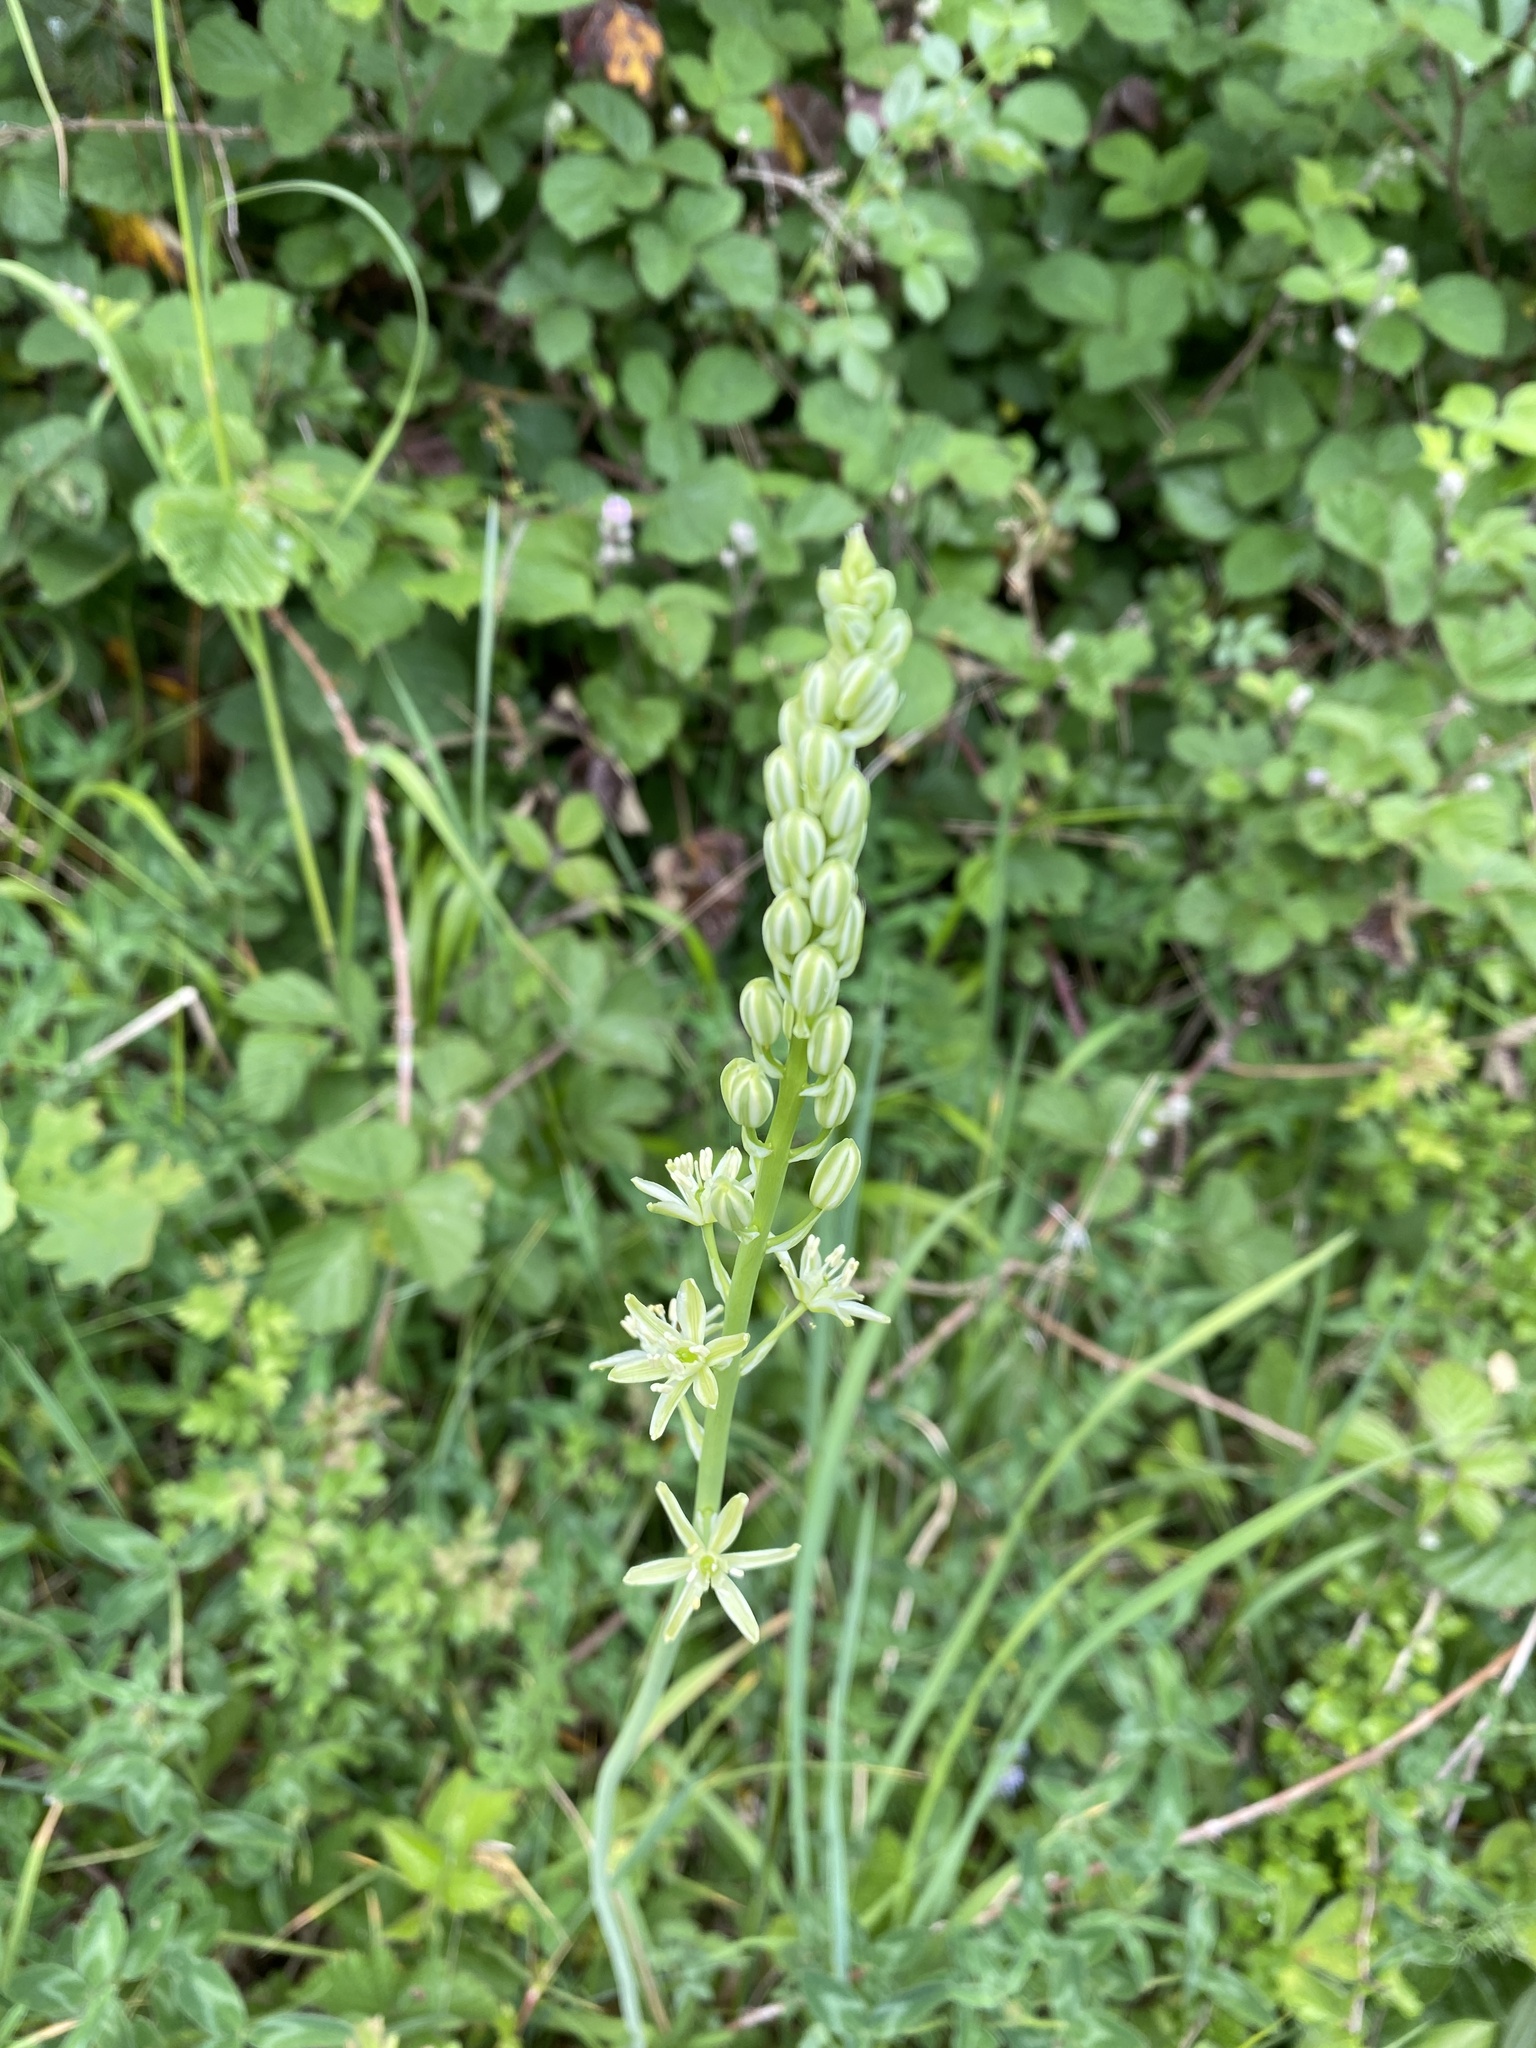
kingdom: Plantae
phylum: Tracheophyta
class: Liliopsida
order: Asparagales
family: Asparagaceae
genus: Ornithogalum
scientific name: Ornithogalum pyrenaicum
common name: Spiked star-of-bethlehem
